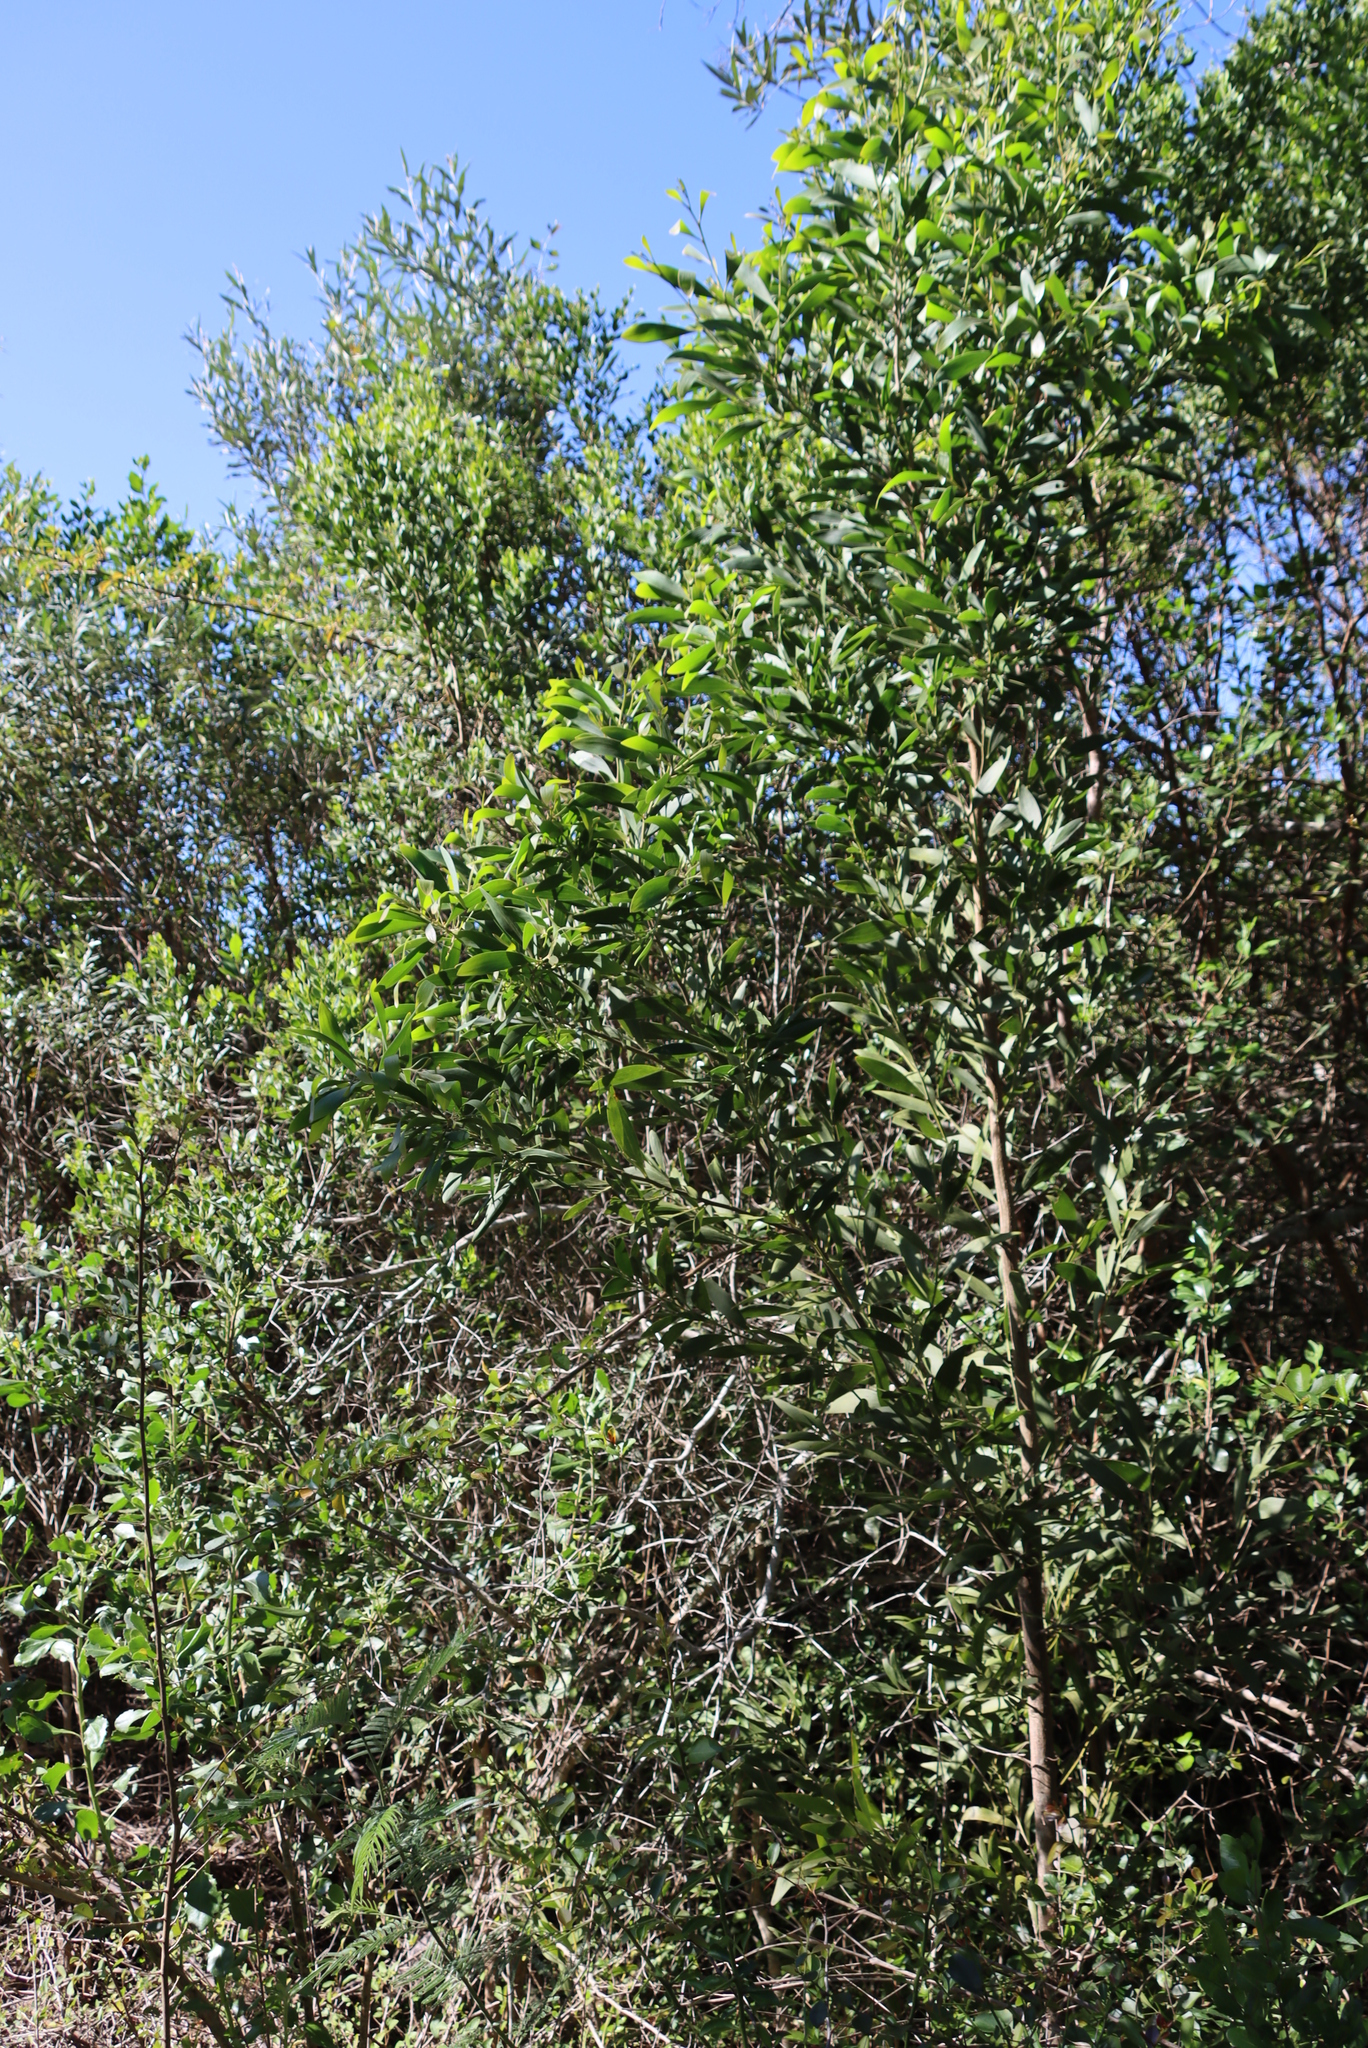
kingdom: Plantae
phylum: Tracheophyta
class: Magnoliopsida
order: Fabales
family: Fabaceae
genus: Acacia
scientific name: Acacia melanoxylon
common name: Blackwood
